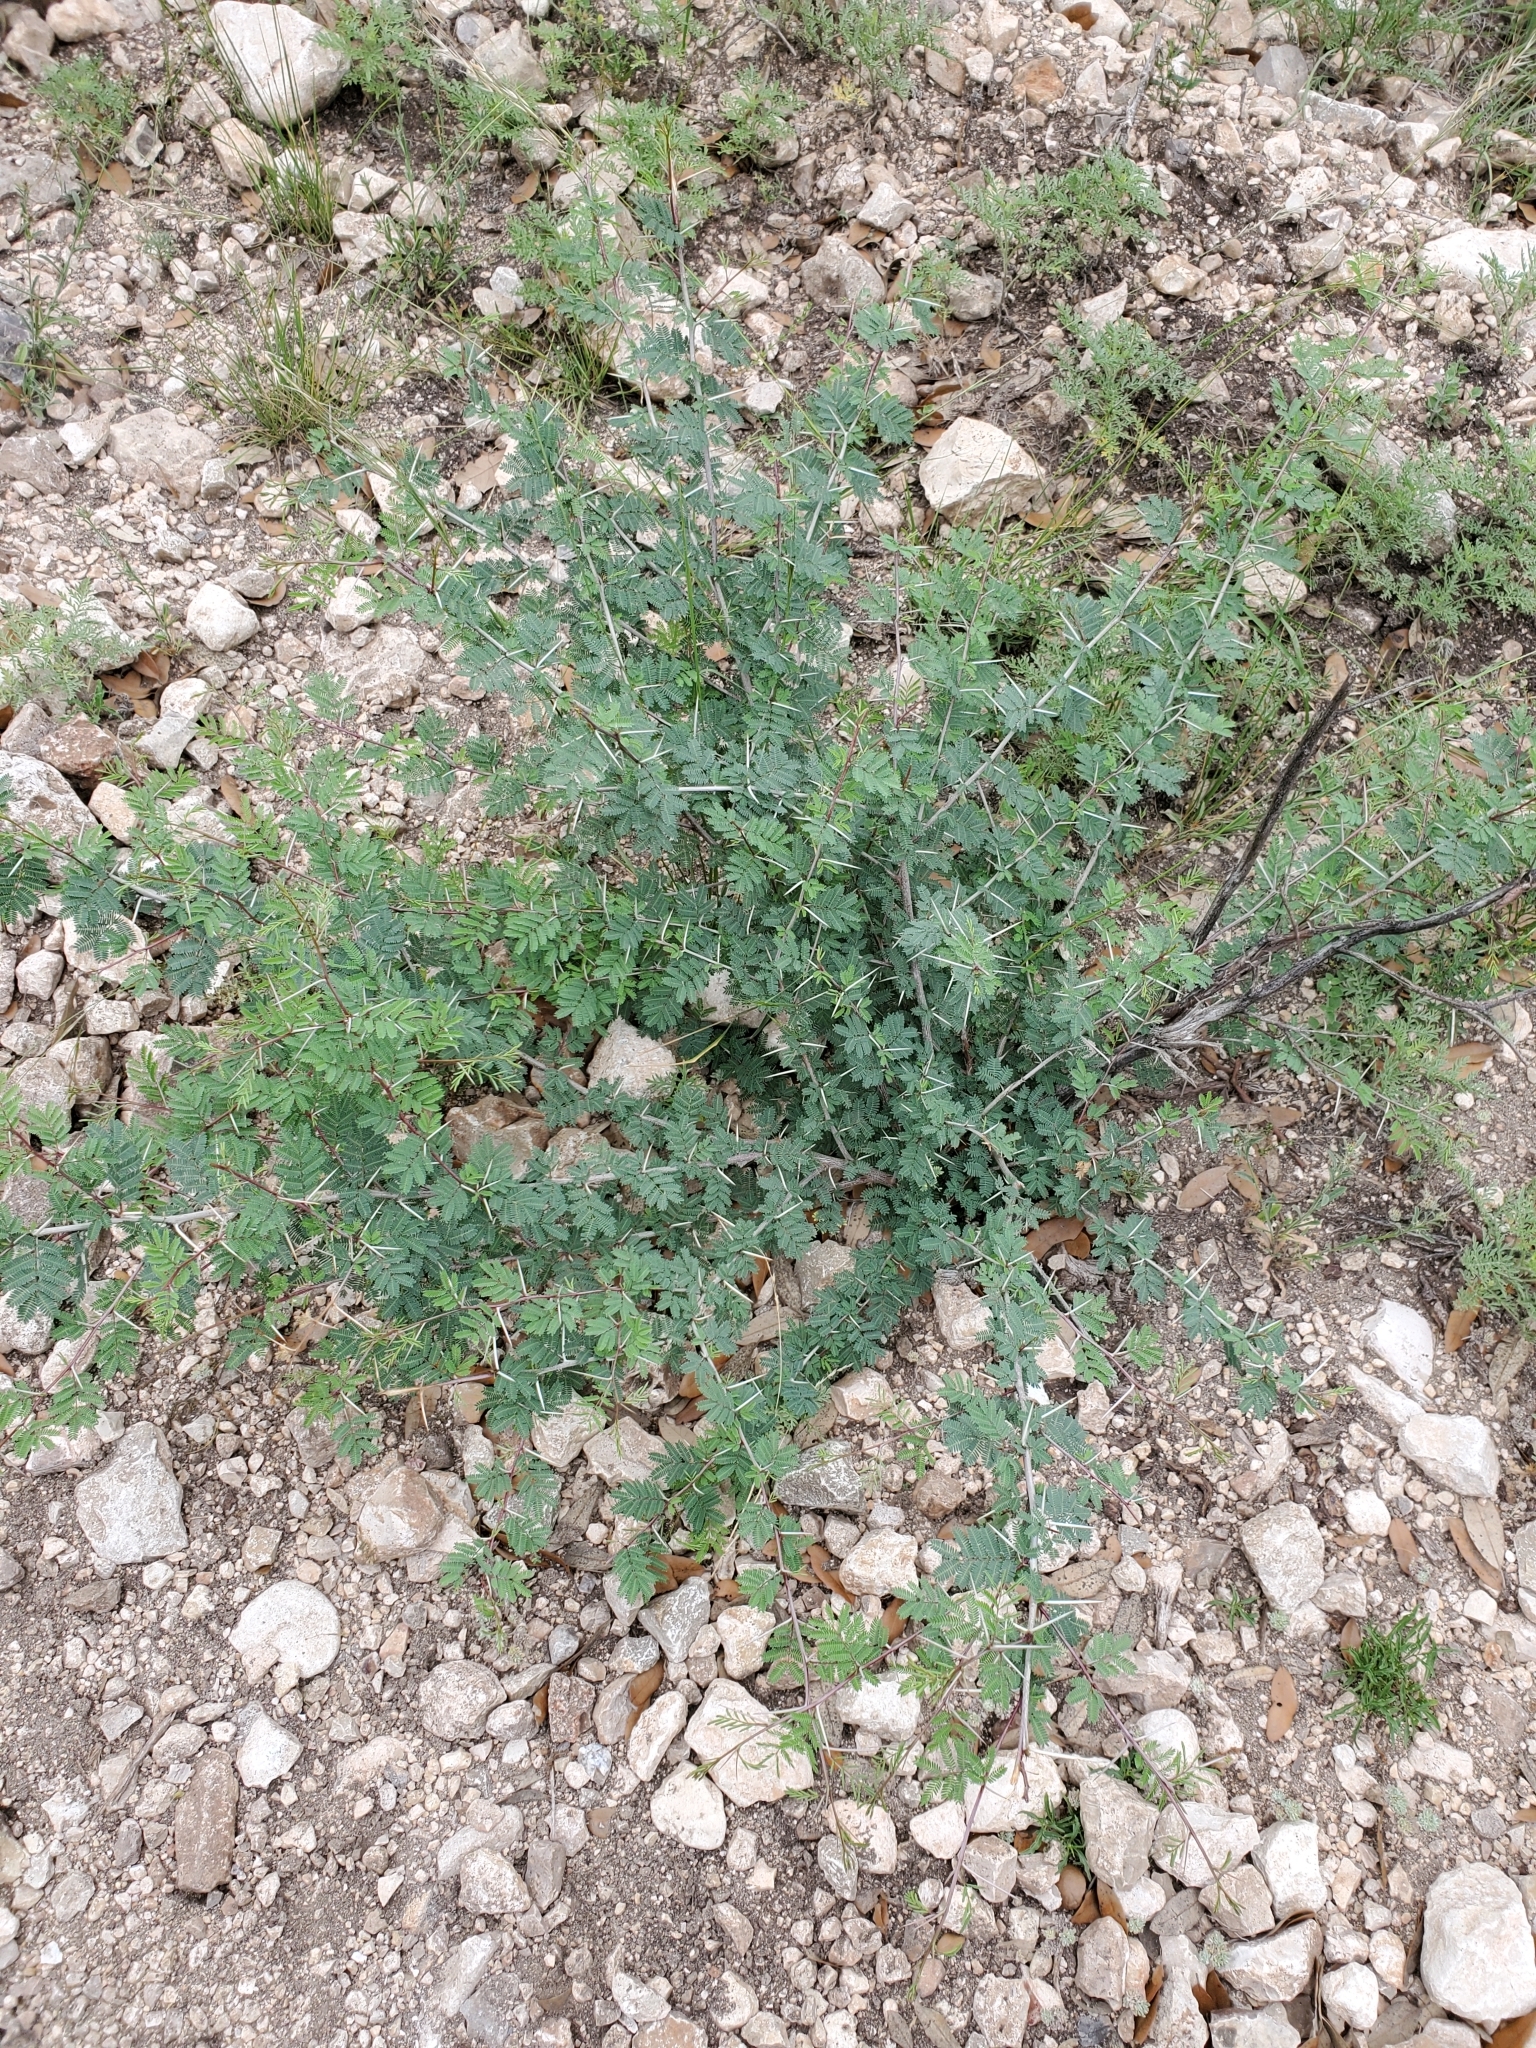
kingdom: Plantae
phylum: Tracheophyta
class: Magnoliopsida
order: Fabales
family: Fabaceae
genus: Vachellia
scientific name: Vachellia farnesiana
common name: Sweet acacia
